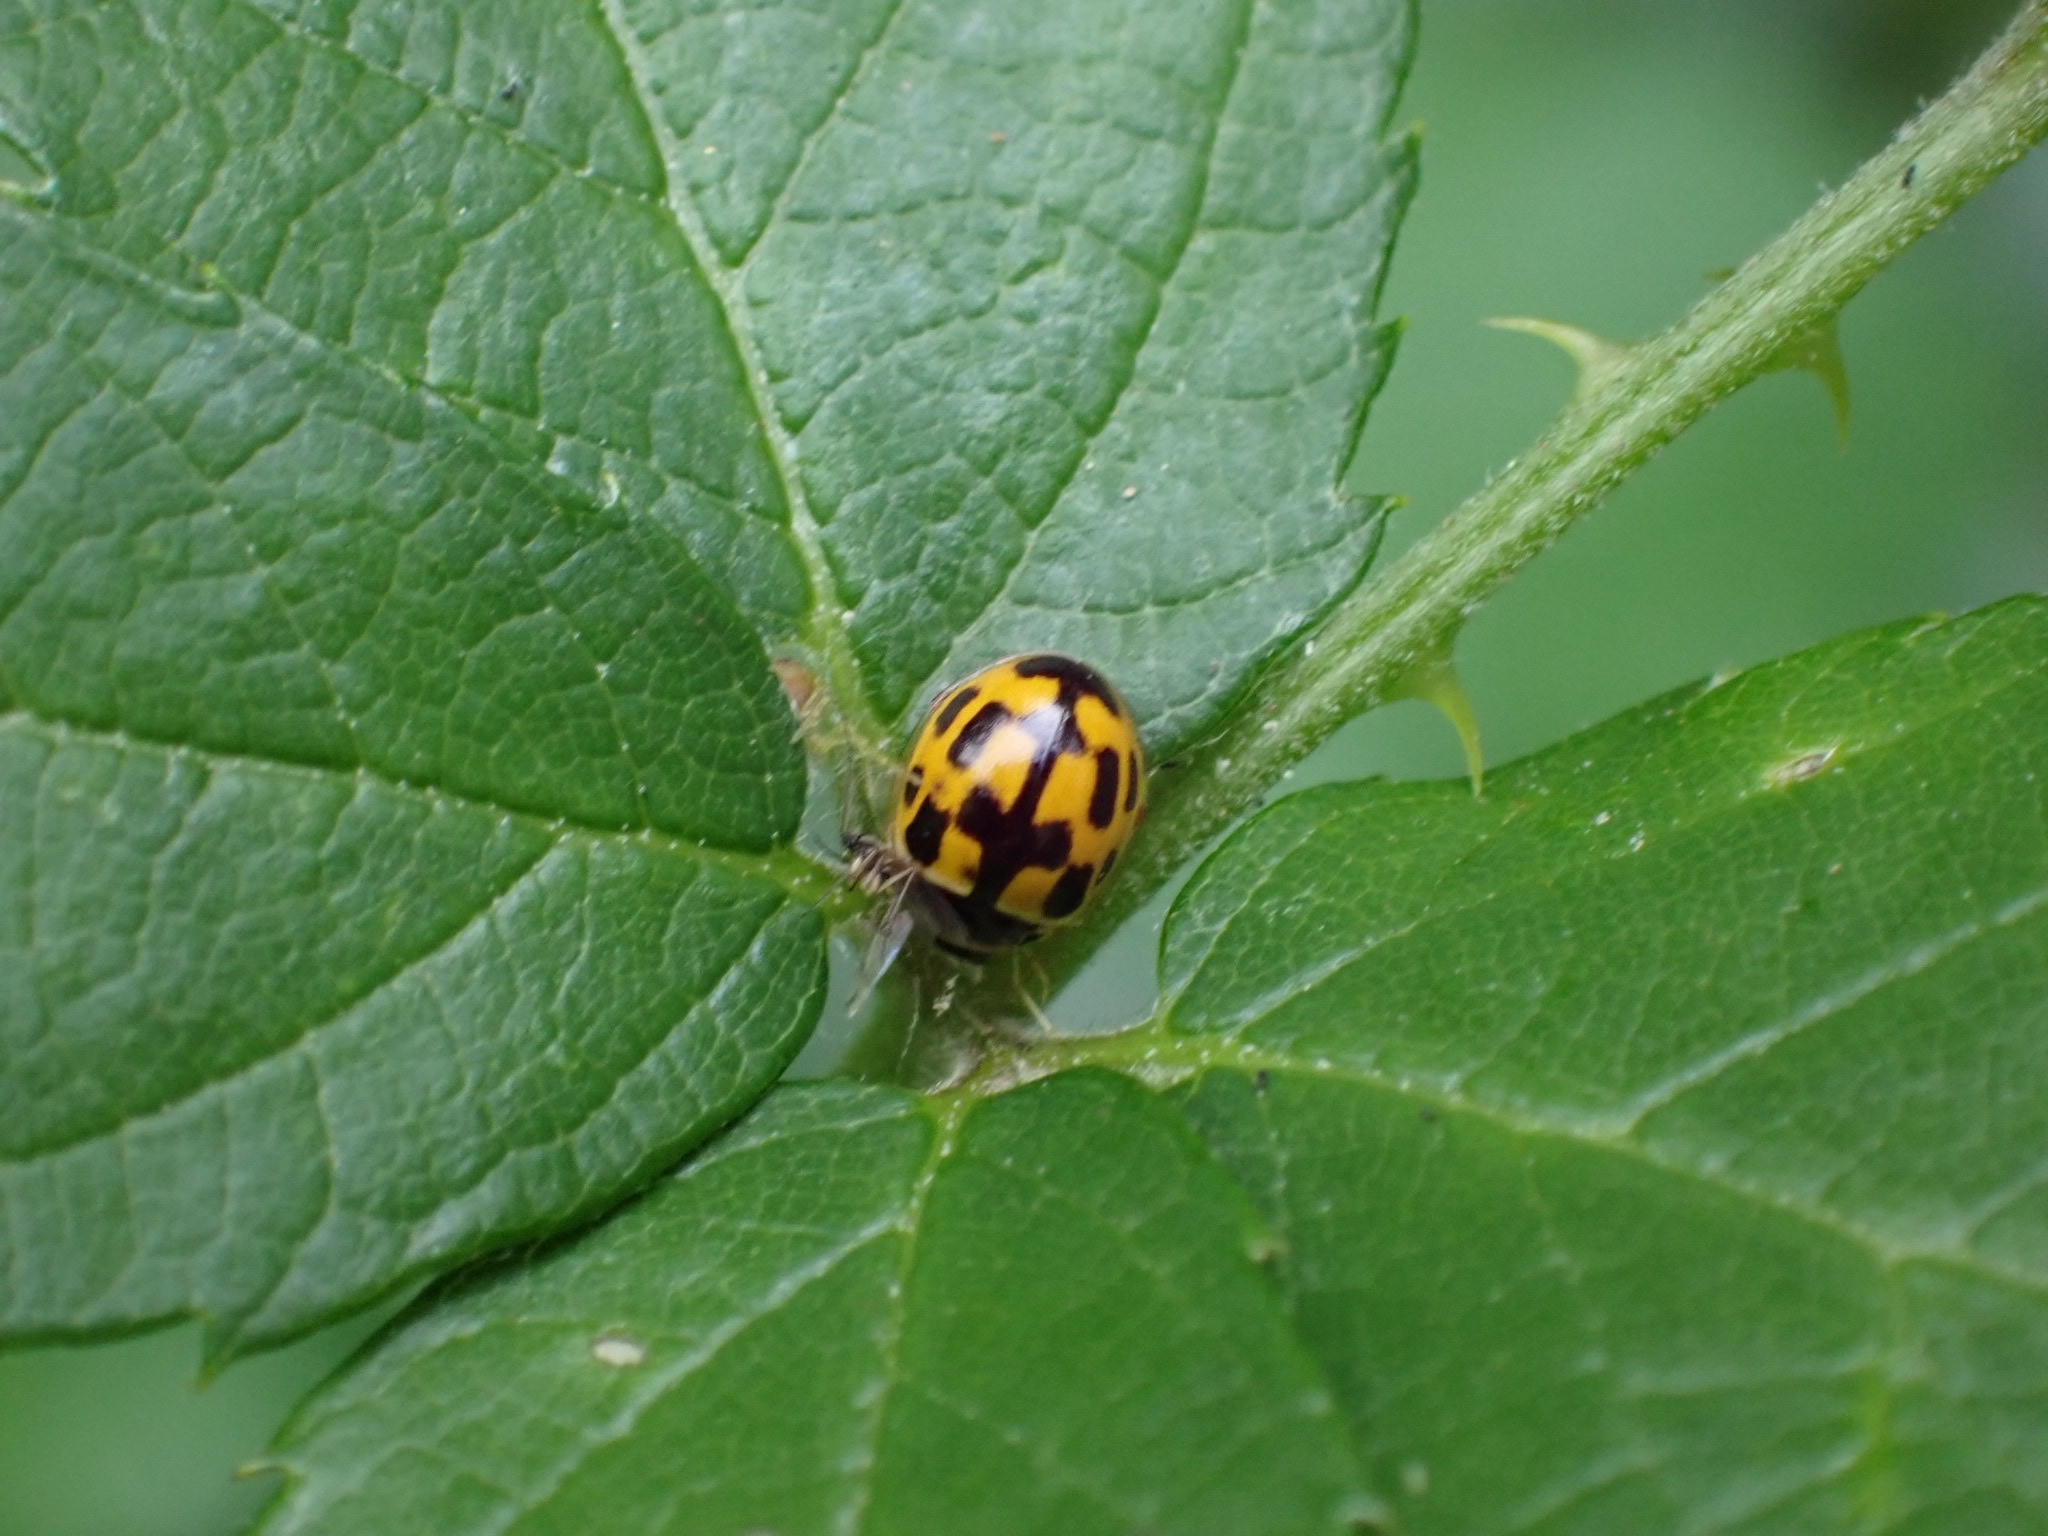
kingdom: Animalia
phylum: Arthropoda
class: Insecta
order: Coleoptera
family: Coccinellidae
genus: Propylaea
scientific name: Propylaea quatuordecimpunctata
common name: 14-spotted ladybird beetle
